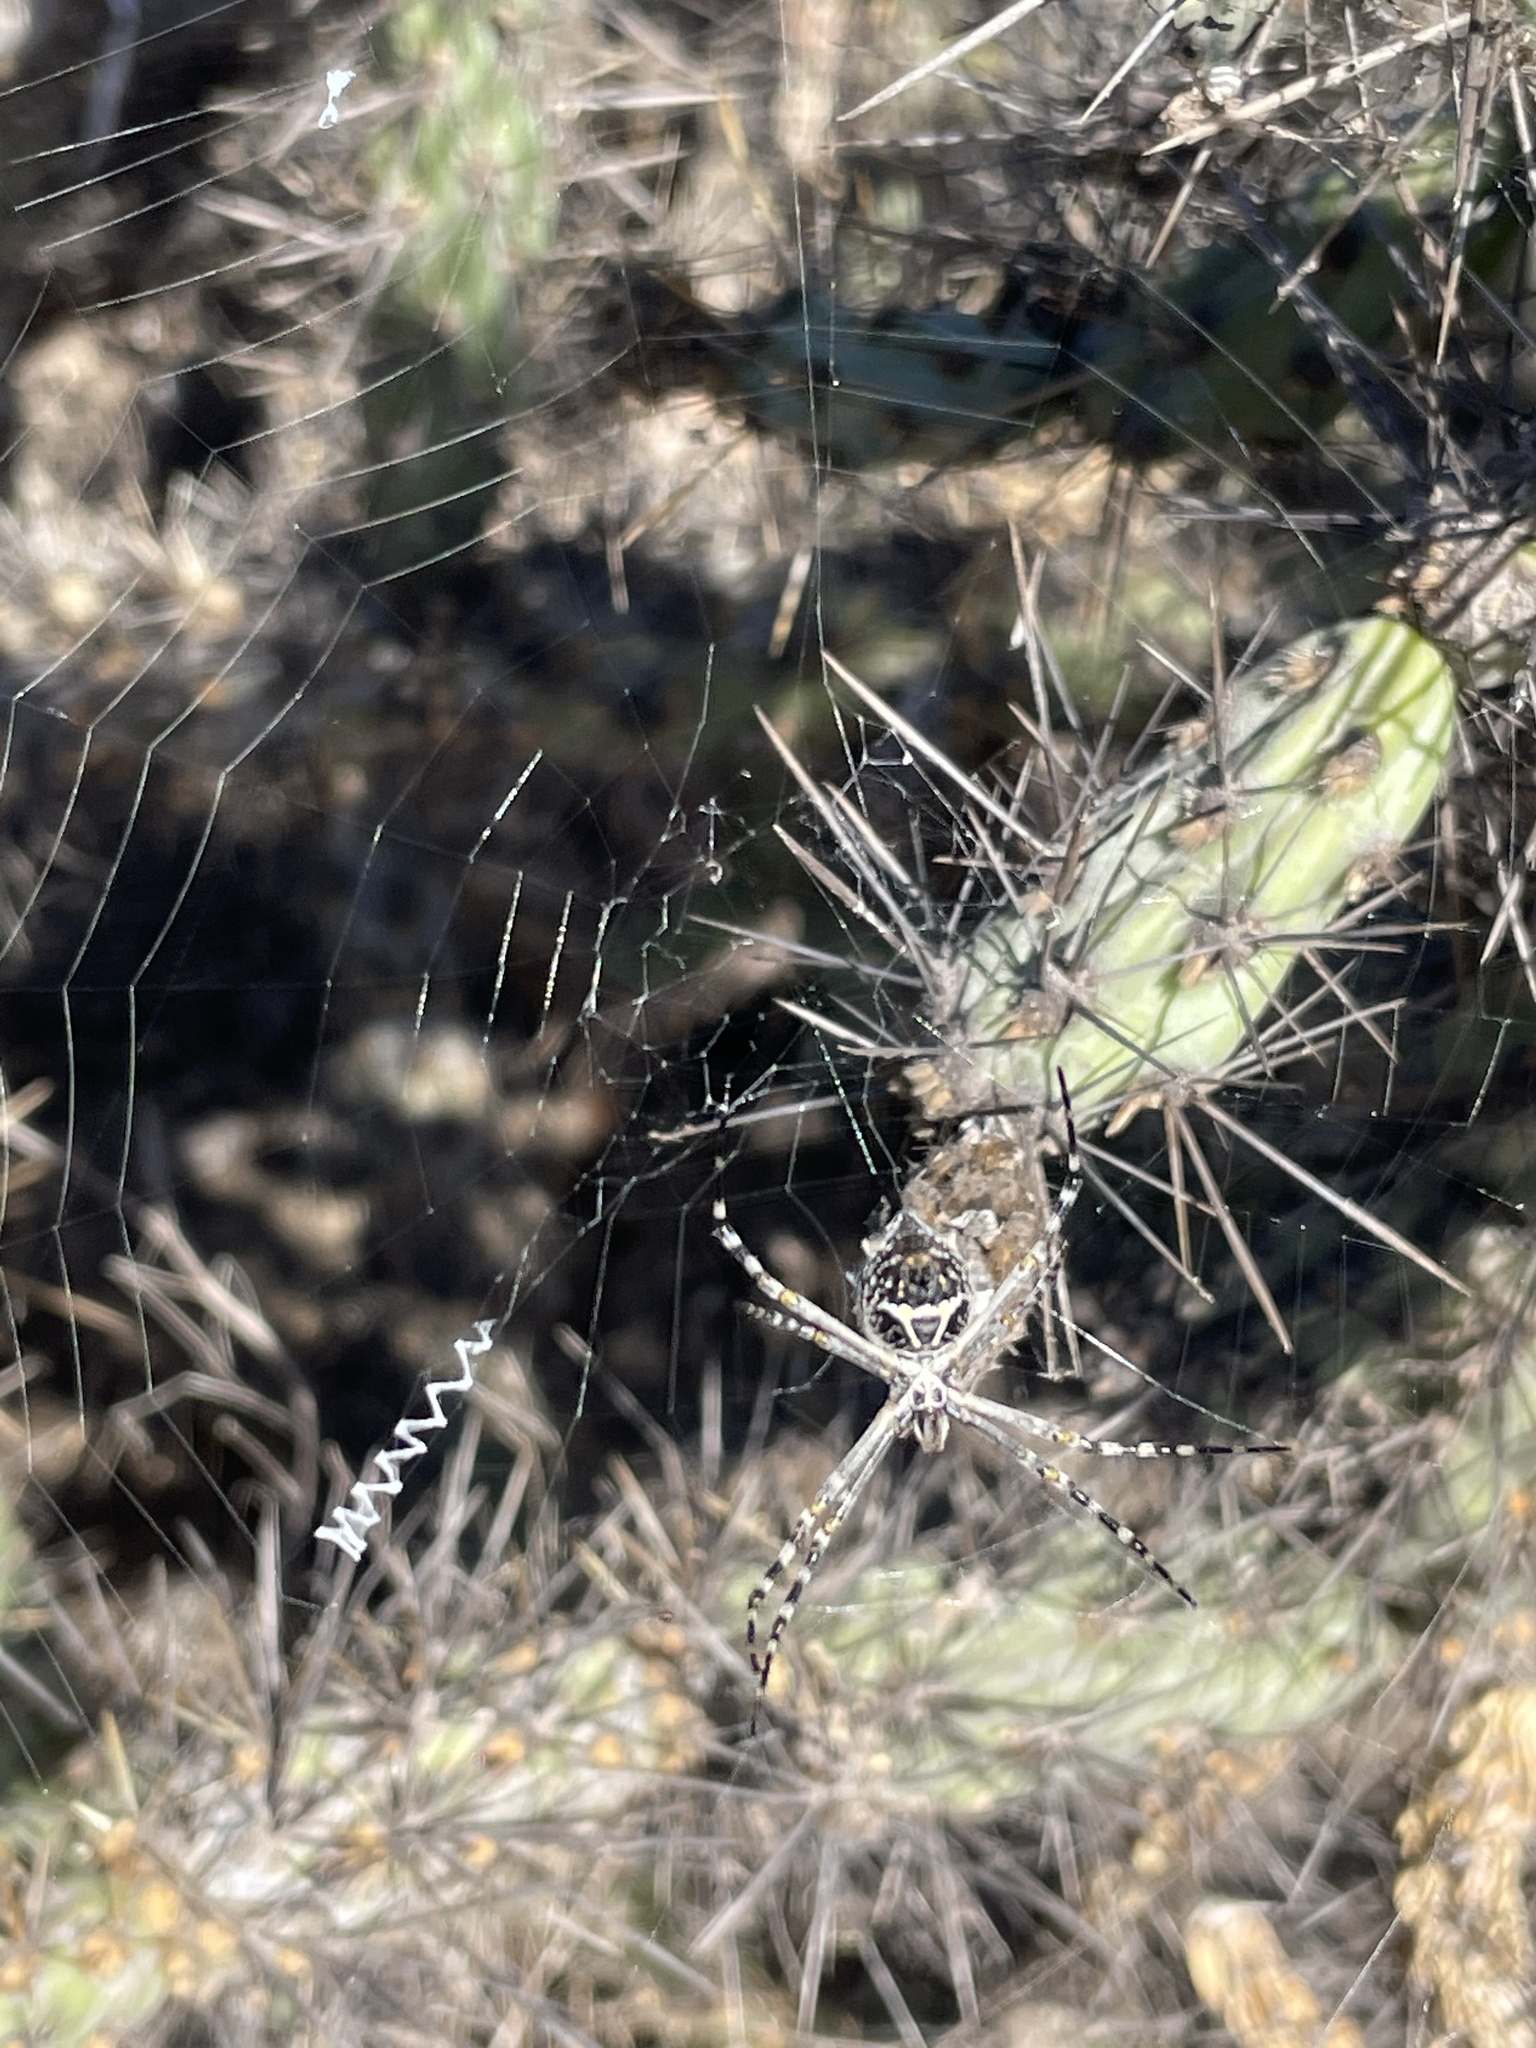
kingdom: Animalia
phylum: Arthropoda
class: Arachnida
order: Araneae
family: Araneidae
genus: Argiope
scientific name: Argiope argentata
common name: Orb weavers
